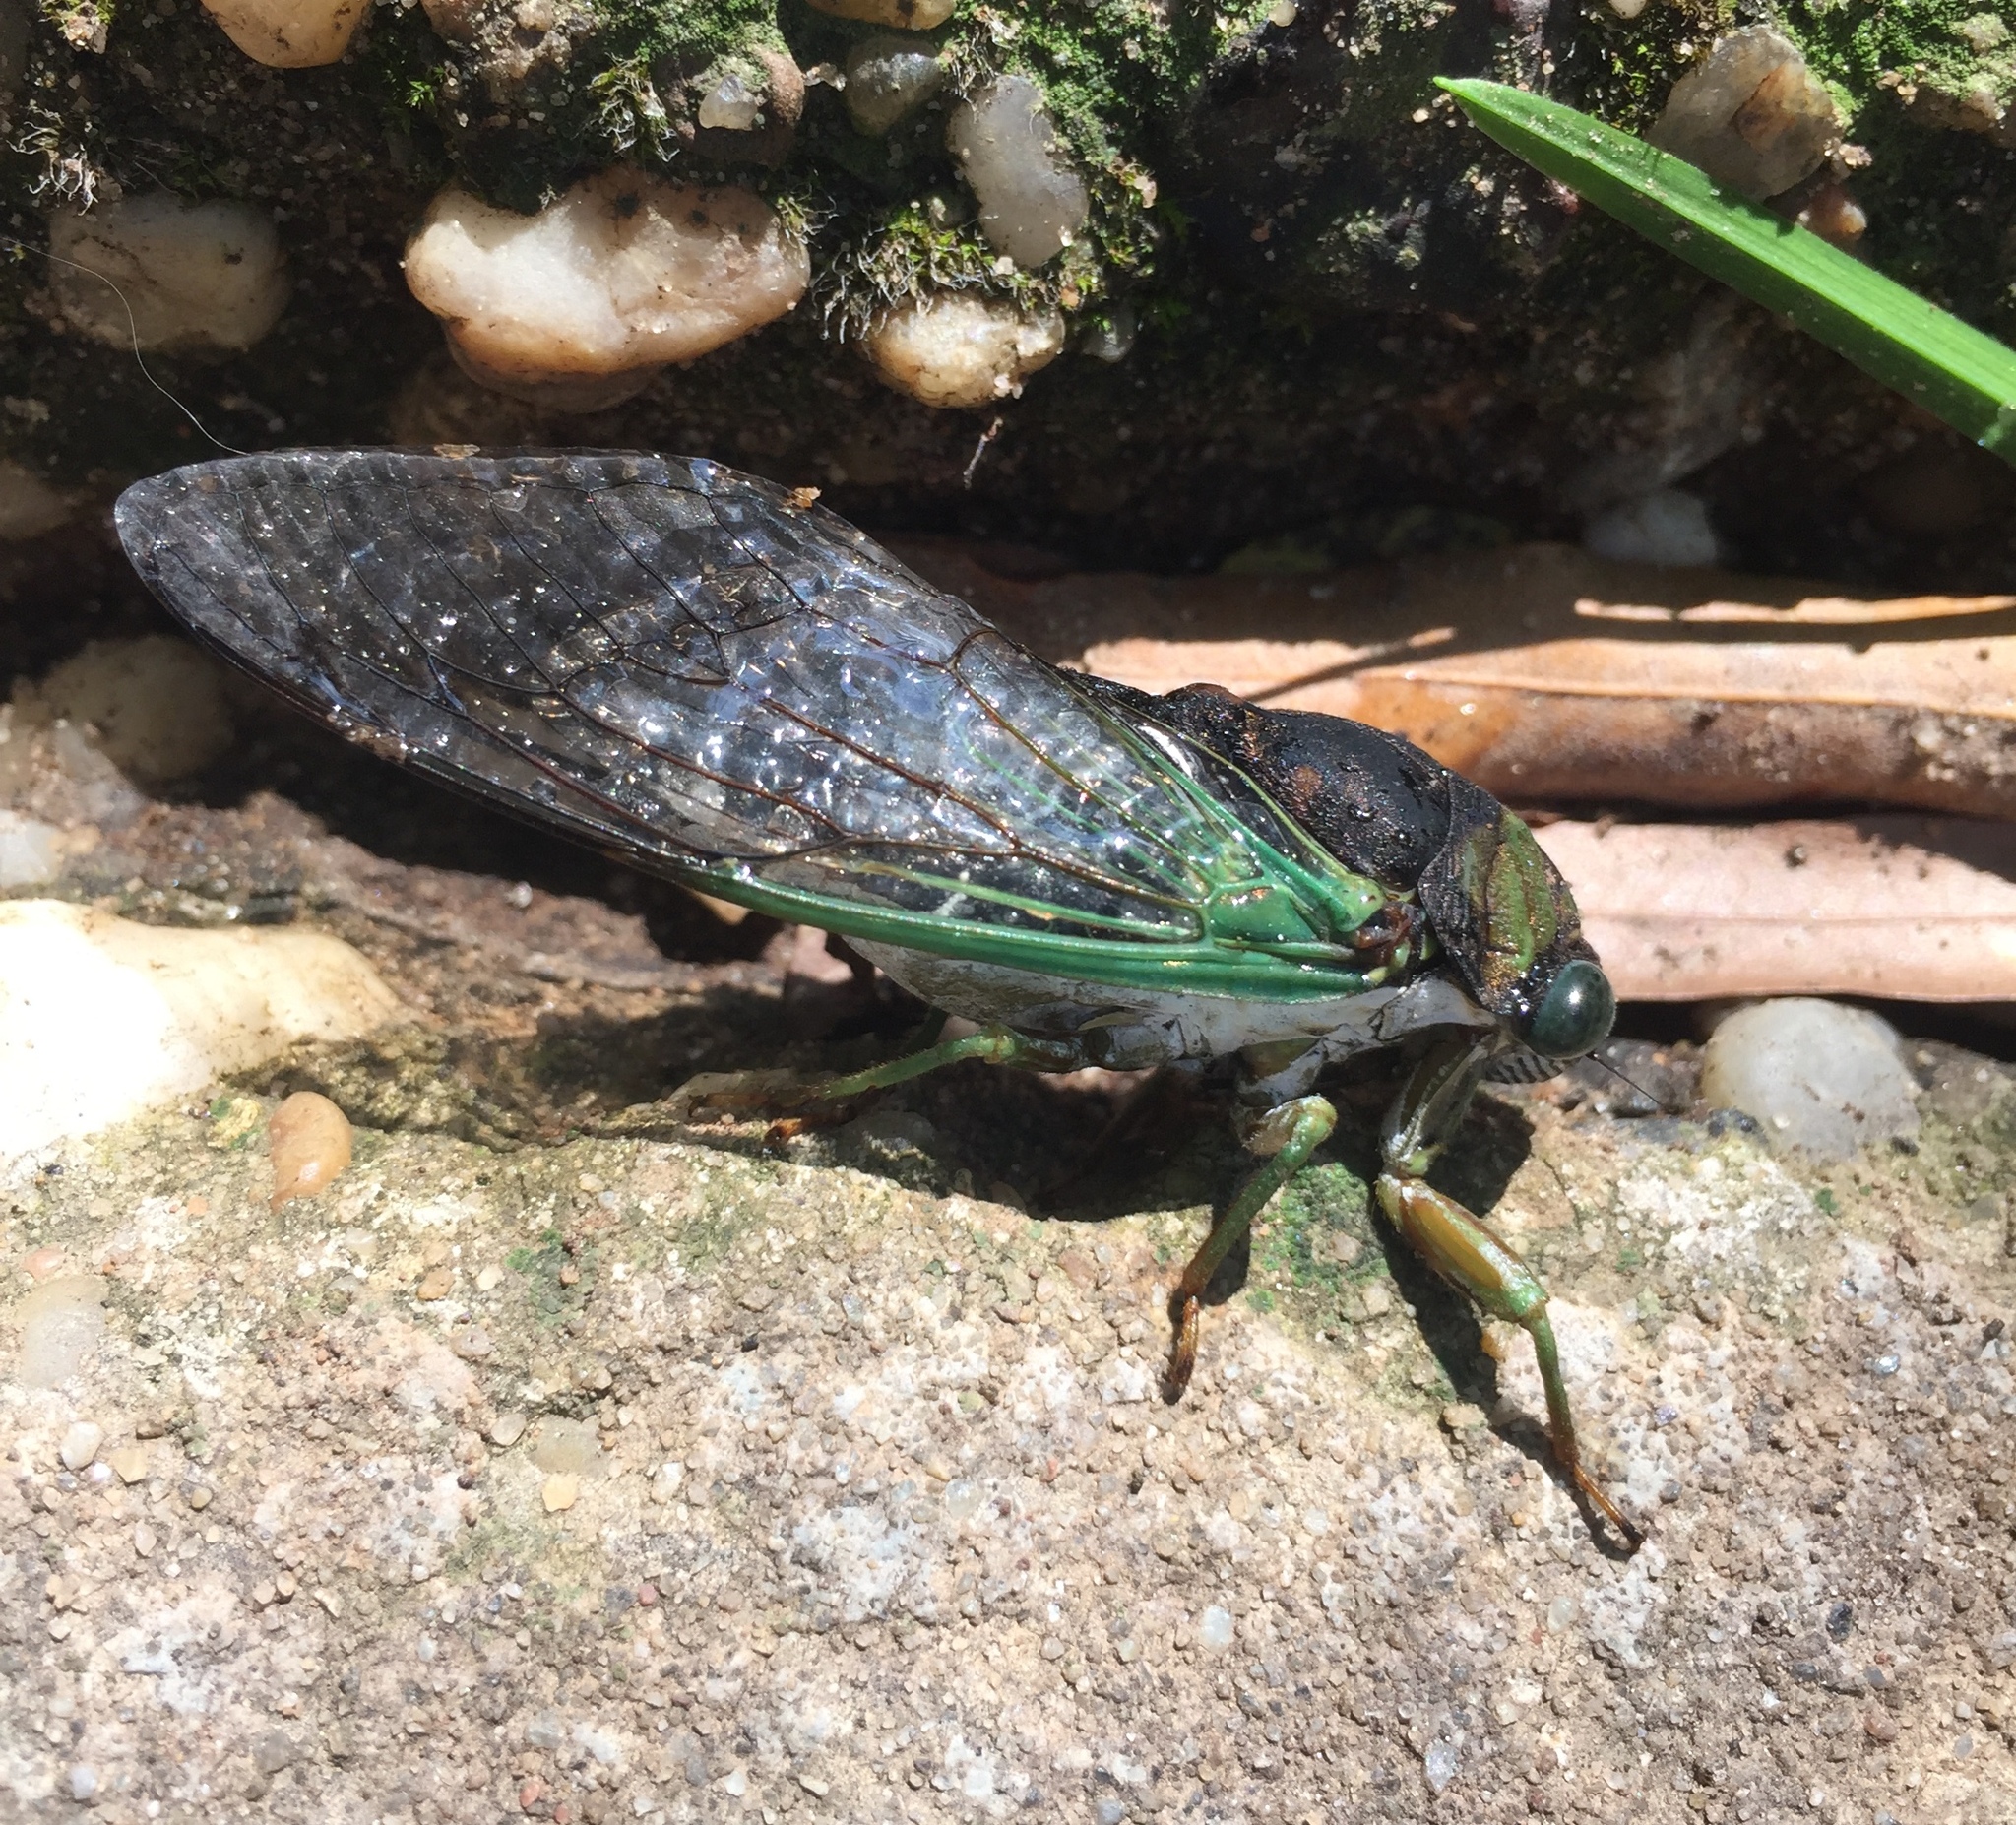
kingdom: Animalia
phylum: Arthropoda
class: Insecta
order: Hemiptera
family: Cicadidae
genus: Neotibicen
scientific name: Neotibicen tibicen
